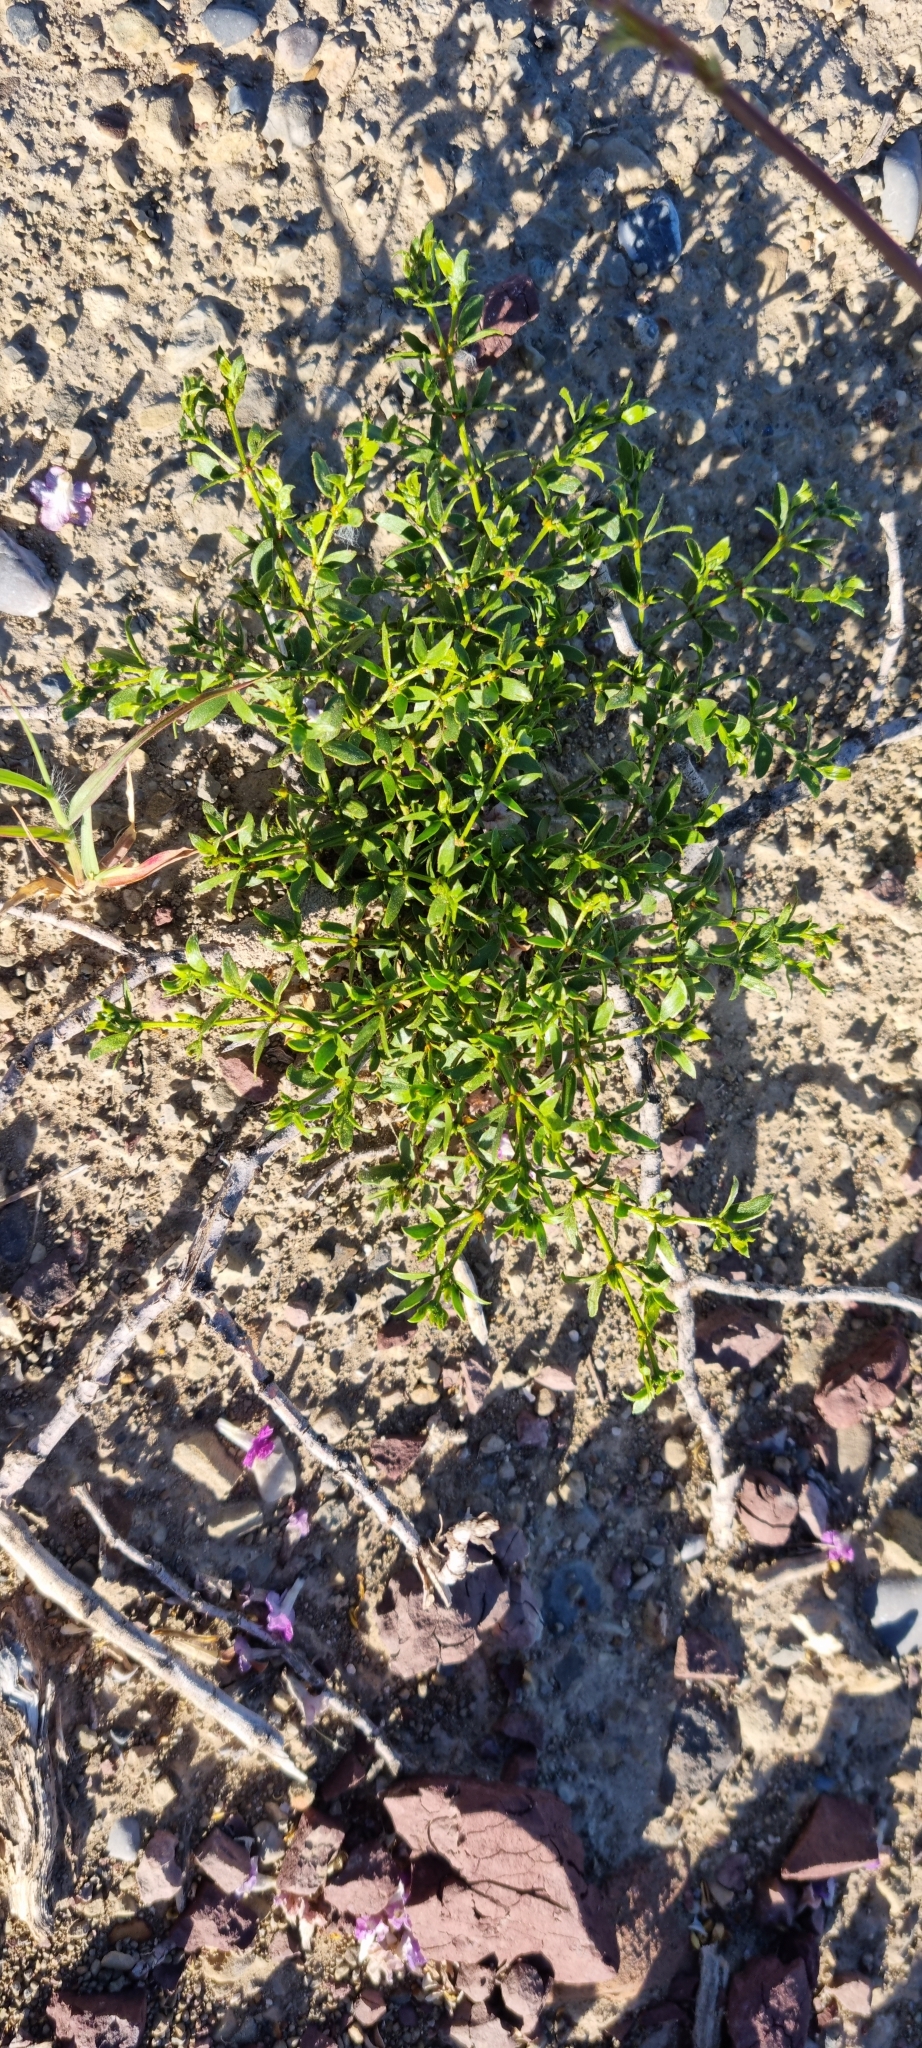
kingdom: Plantae
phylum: Tracheophyta
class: Magnoliopsida
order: Zygophyllales
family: Zygophyllaceae
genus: Larrea
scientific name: Larrea tridentata
